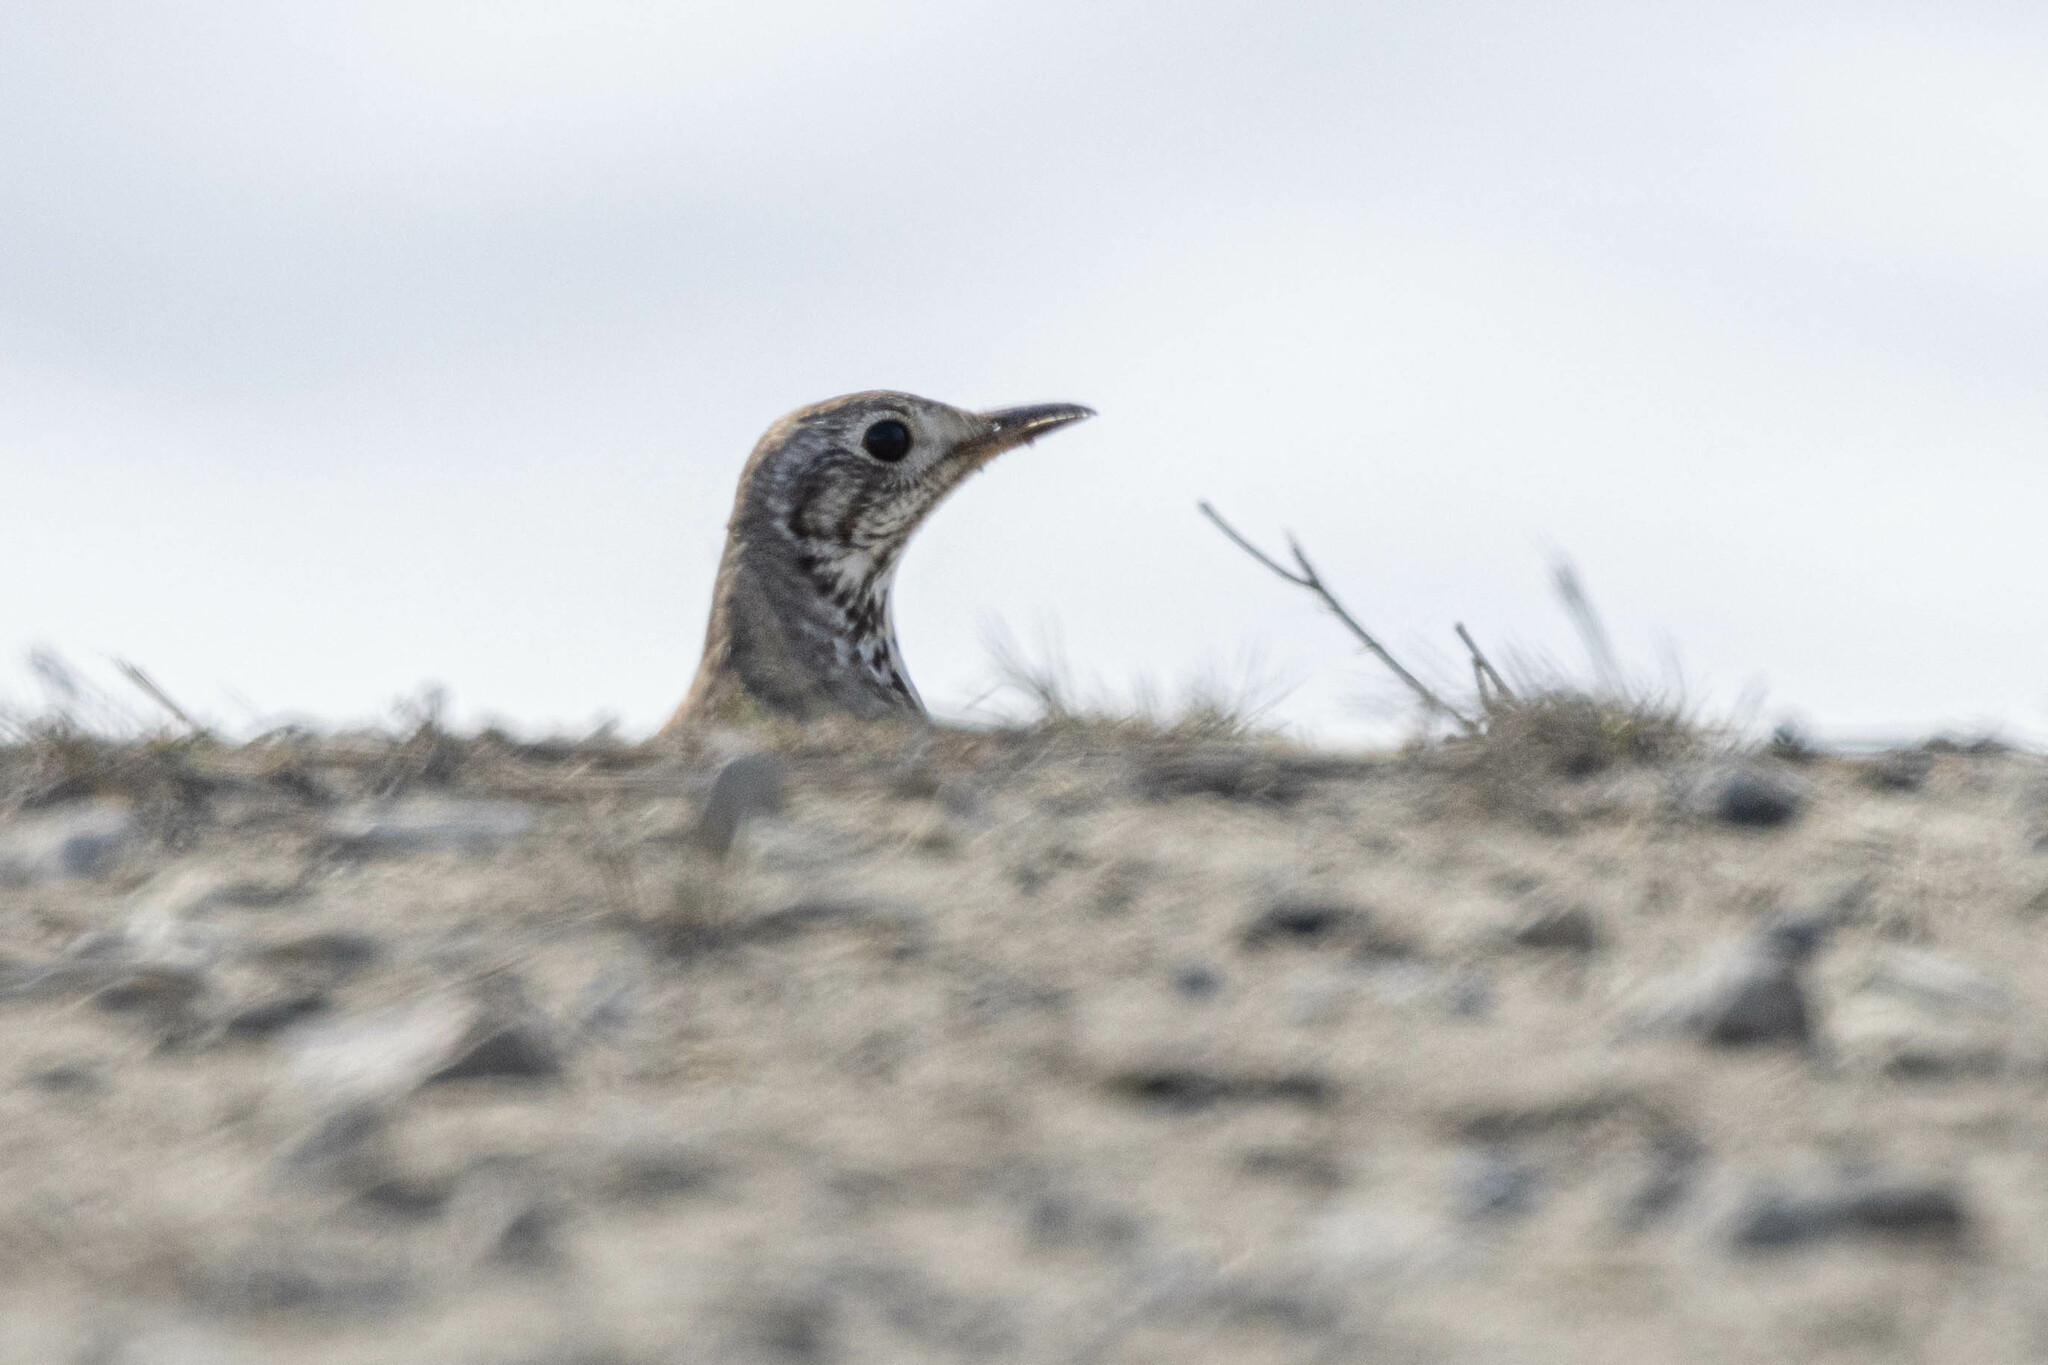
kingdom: Animalia
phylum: Chordata
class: Aves
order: Passeriformes
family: Turdidae
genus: Turdus
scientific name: Turdus viscivorus
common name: Mistle thrush
